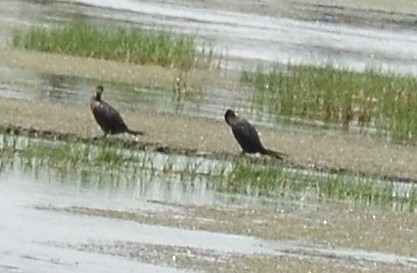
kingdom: Animalia
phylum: Chordata
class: Aves
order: Suliformes
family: Phalacrocoracidae
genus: Microcarbo
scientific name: Microcarbo niger
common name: Little cormorant
